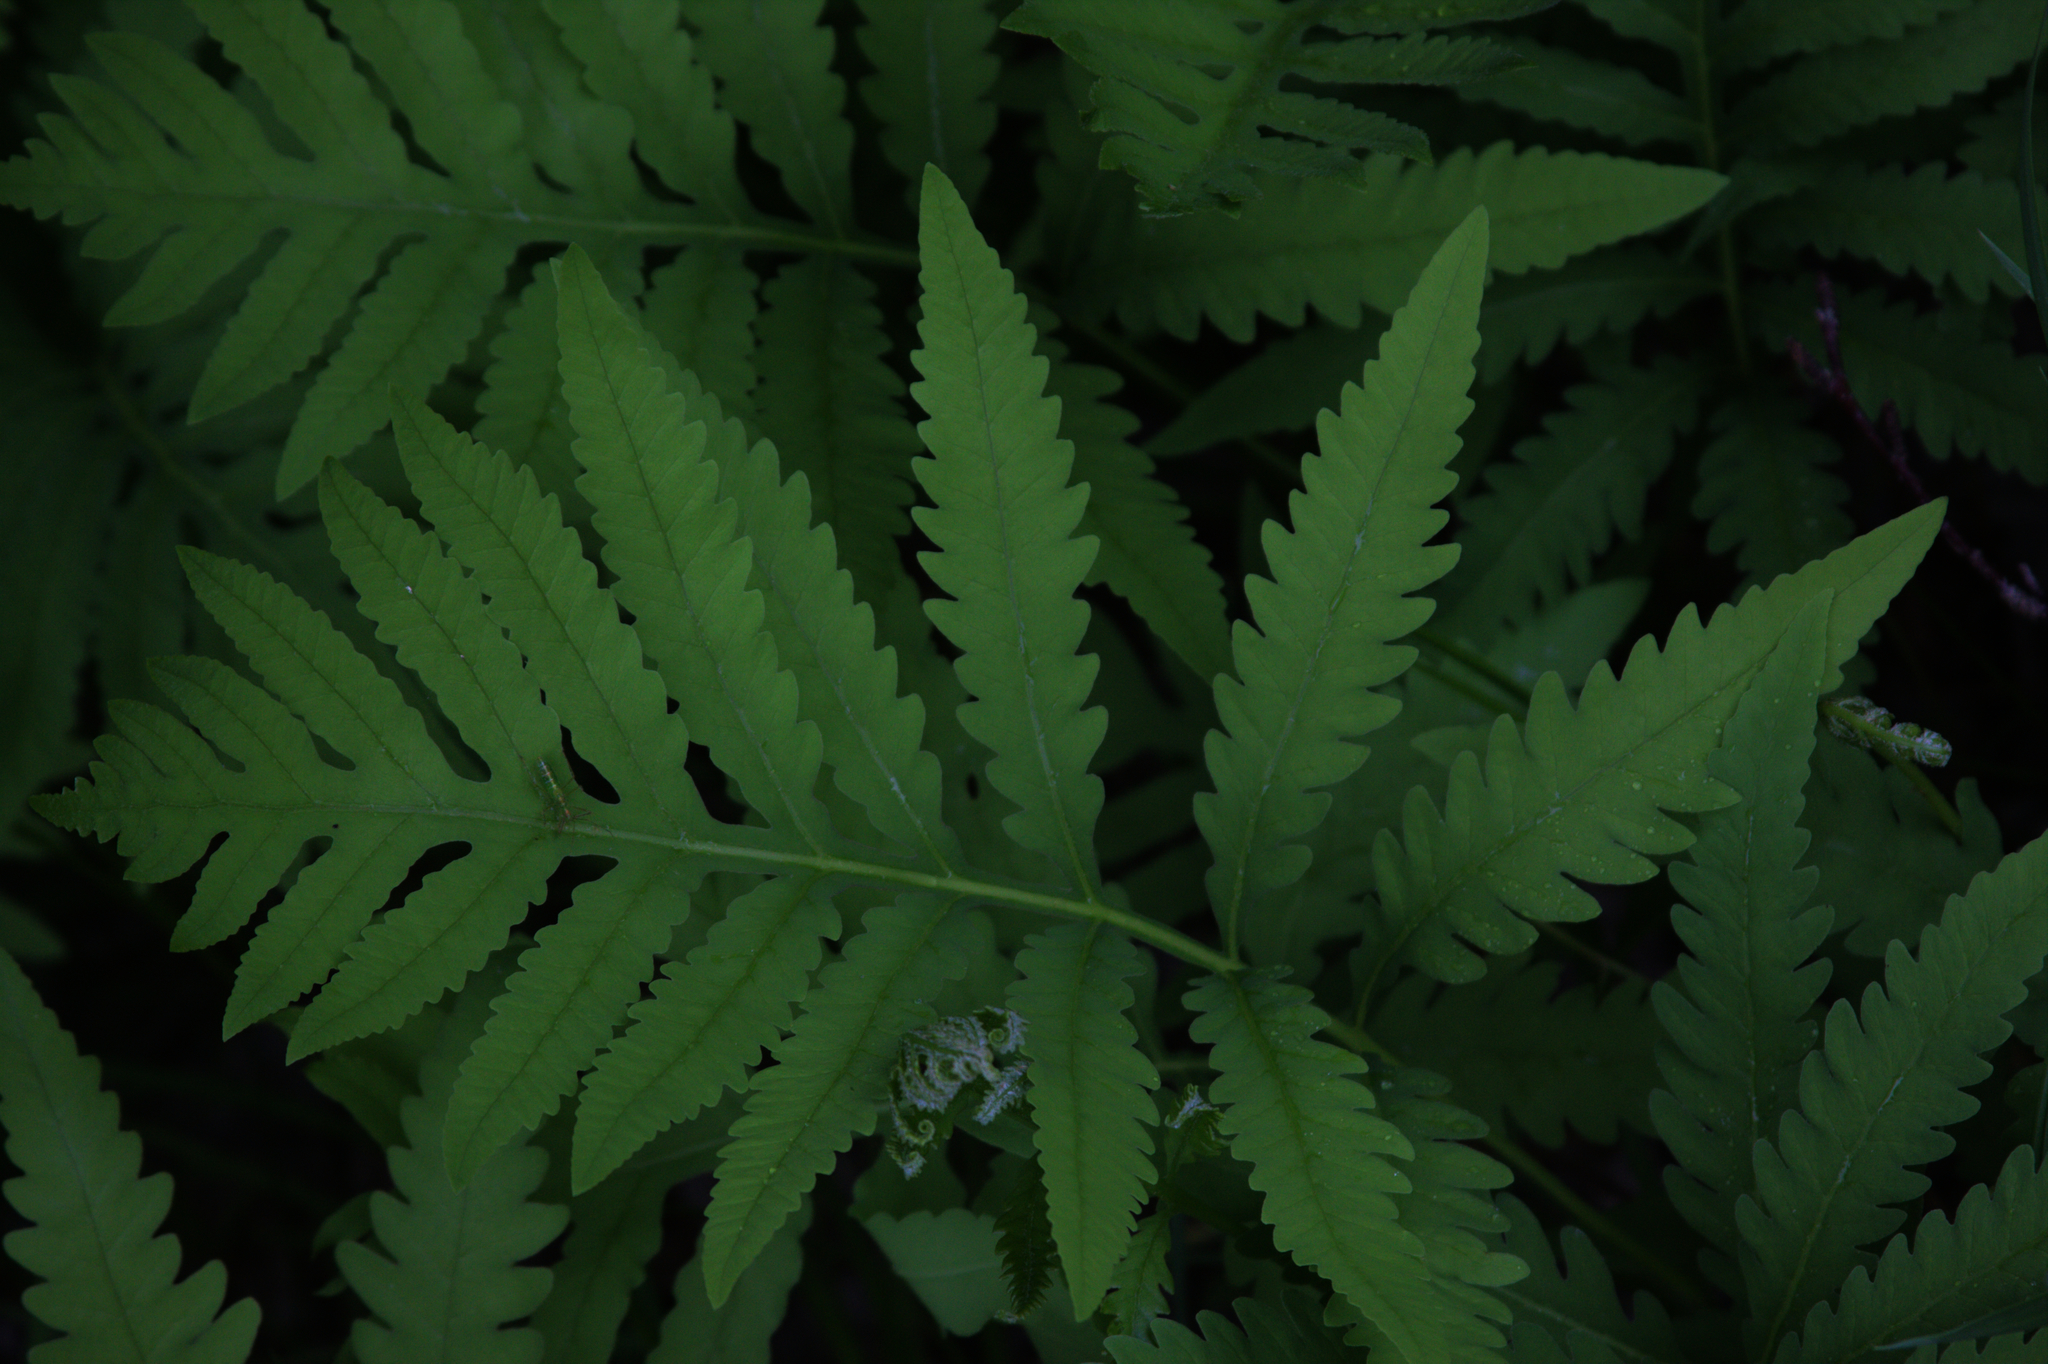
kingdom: Plantae
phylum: Tracheophyta
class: Polypodiopsida
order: Polypodiales
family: Onocleaceae
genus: Onoclea
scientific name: Onoclea sensibilis
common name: Sensitive fern
